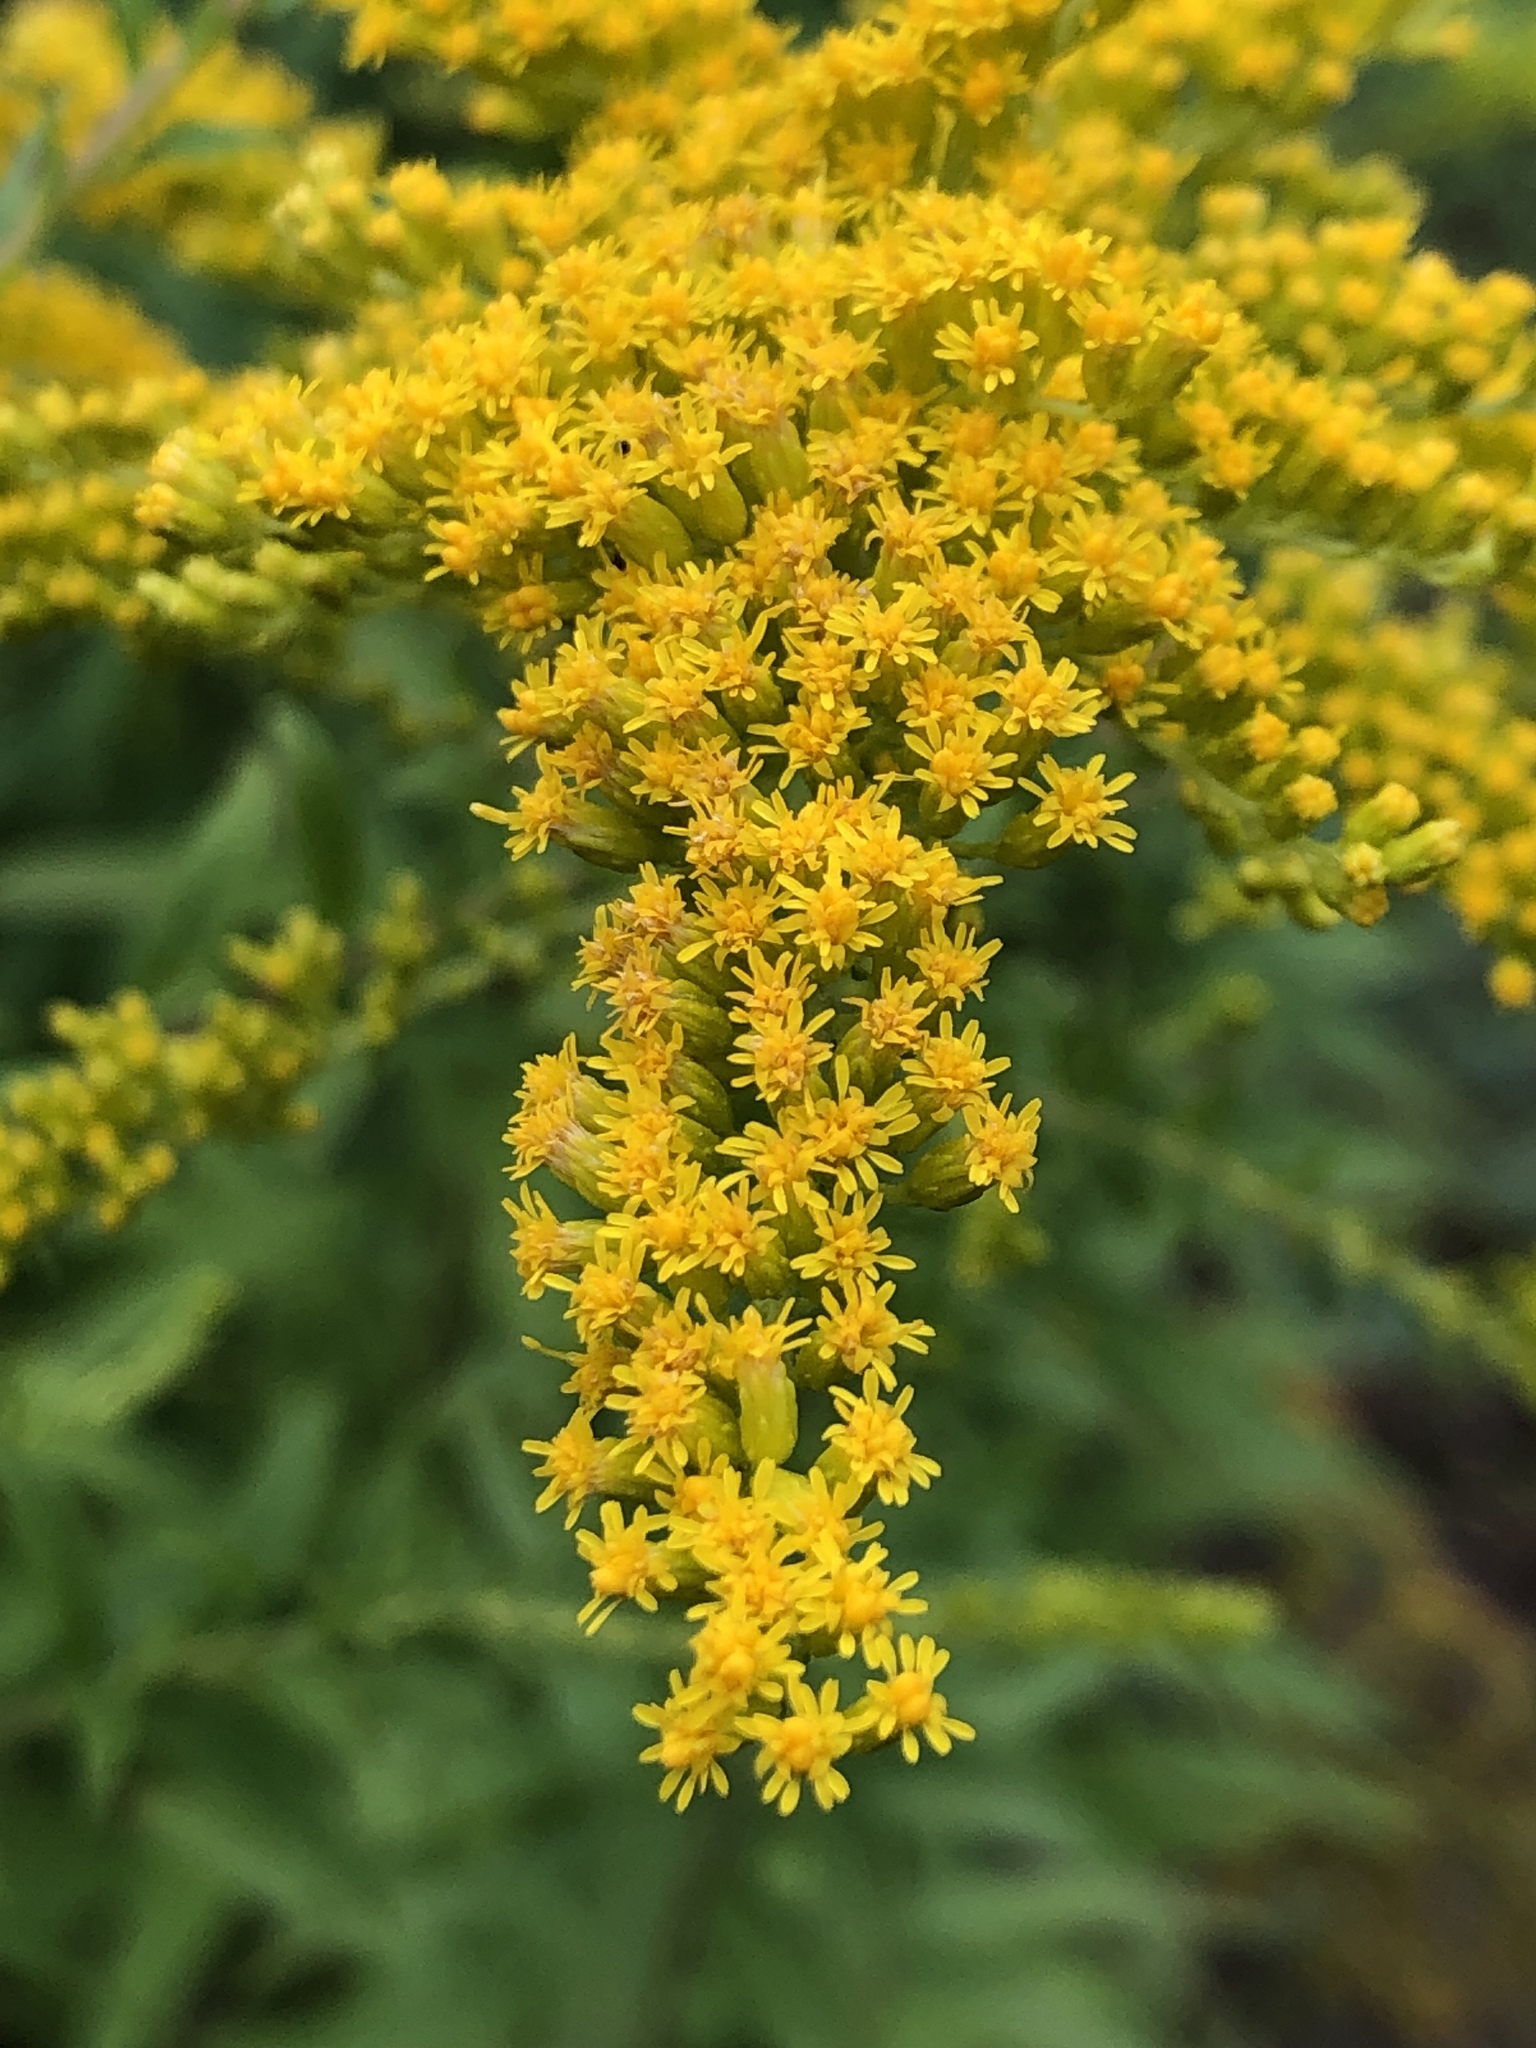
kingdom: Plantae
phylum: Tracheophyta
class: Magnoliopsida
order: Asterales
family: Asteraceae
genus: Solidago
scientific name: Solidago canadensis
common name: Canada goldenrod
